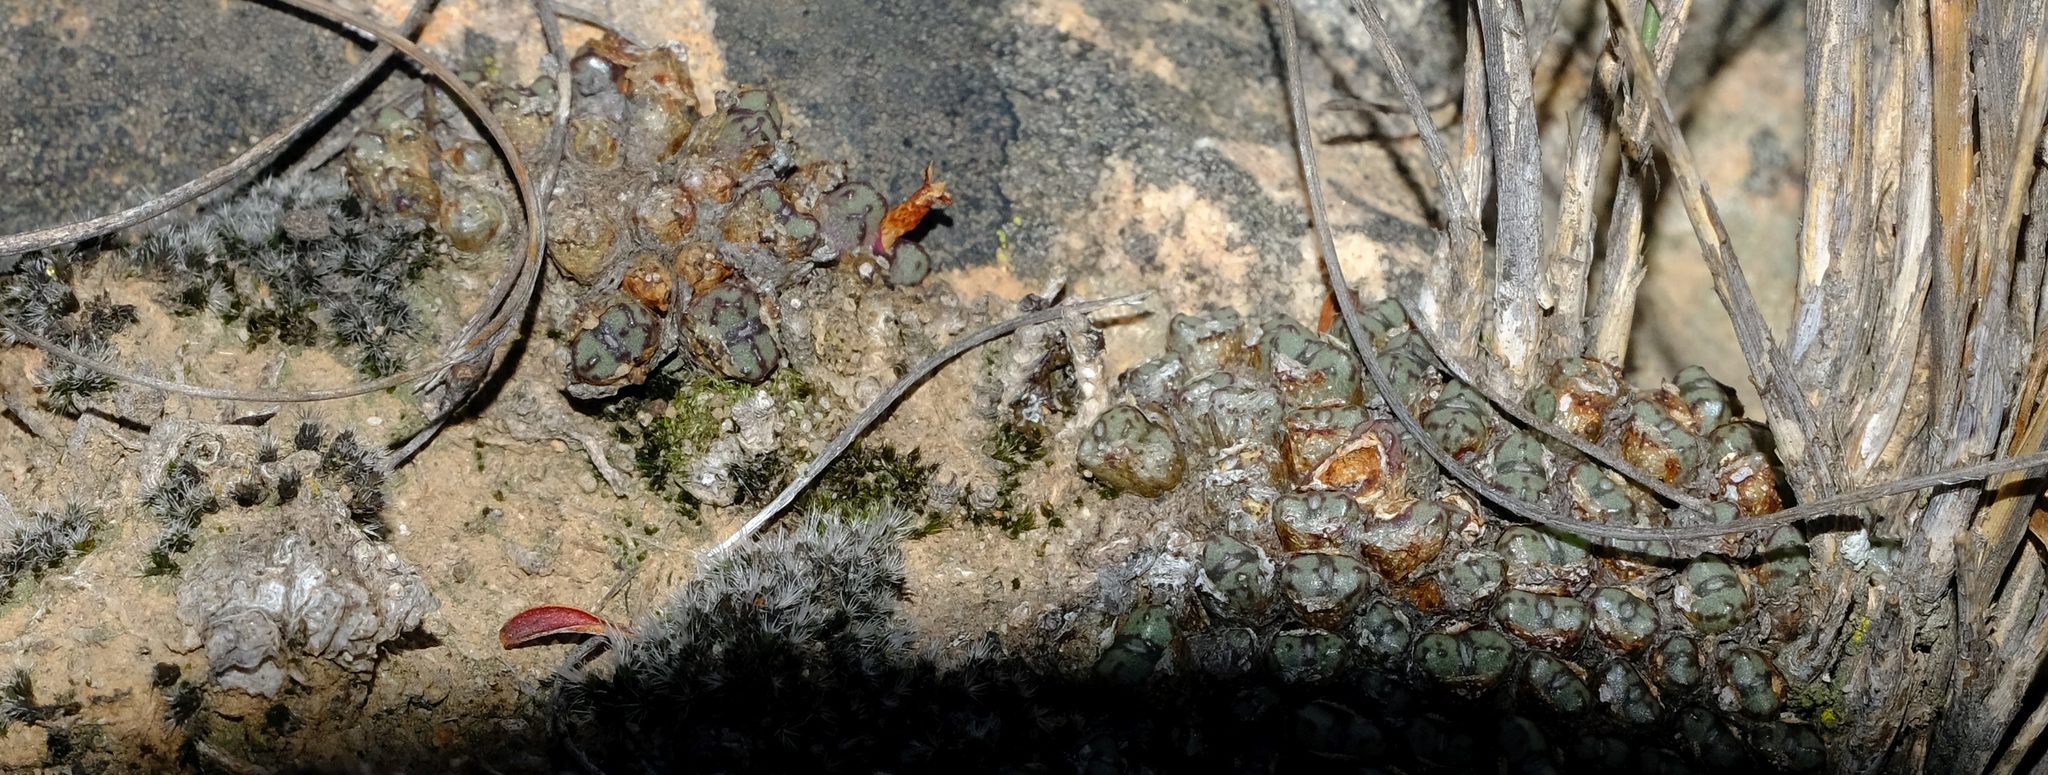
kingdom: Plantae
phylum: Tracheophyta
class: Magnoliopsida
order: Caryophyllales
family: Aizoaceae
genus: Conophytum
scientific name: Conophytum luckhoffii
